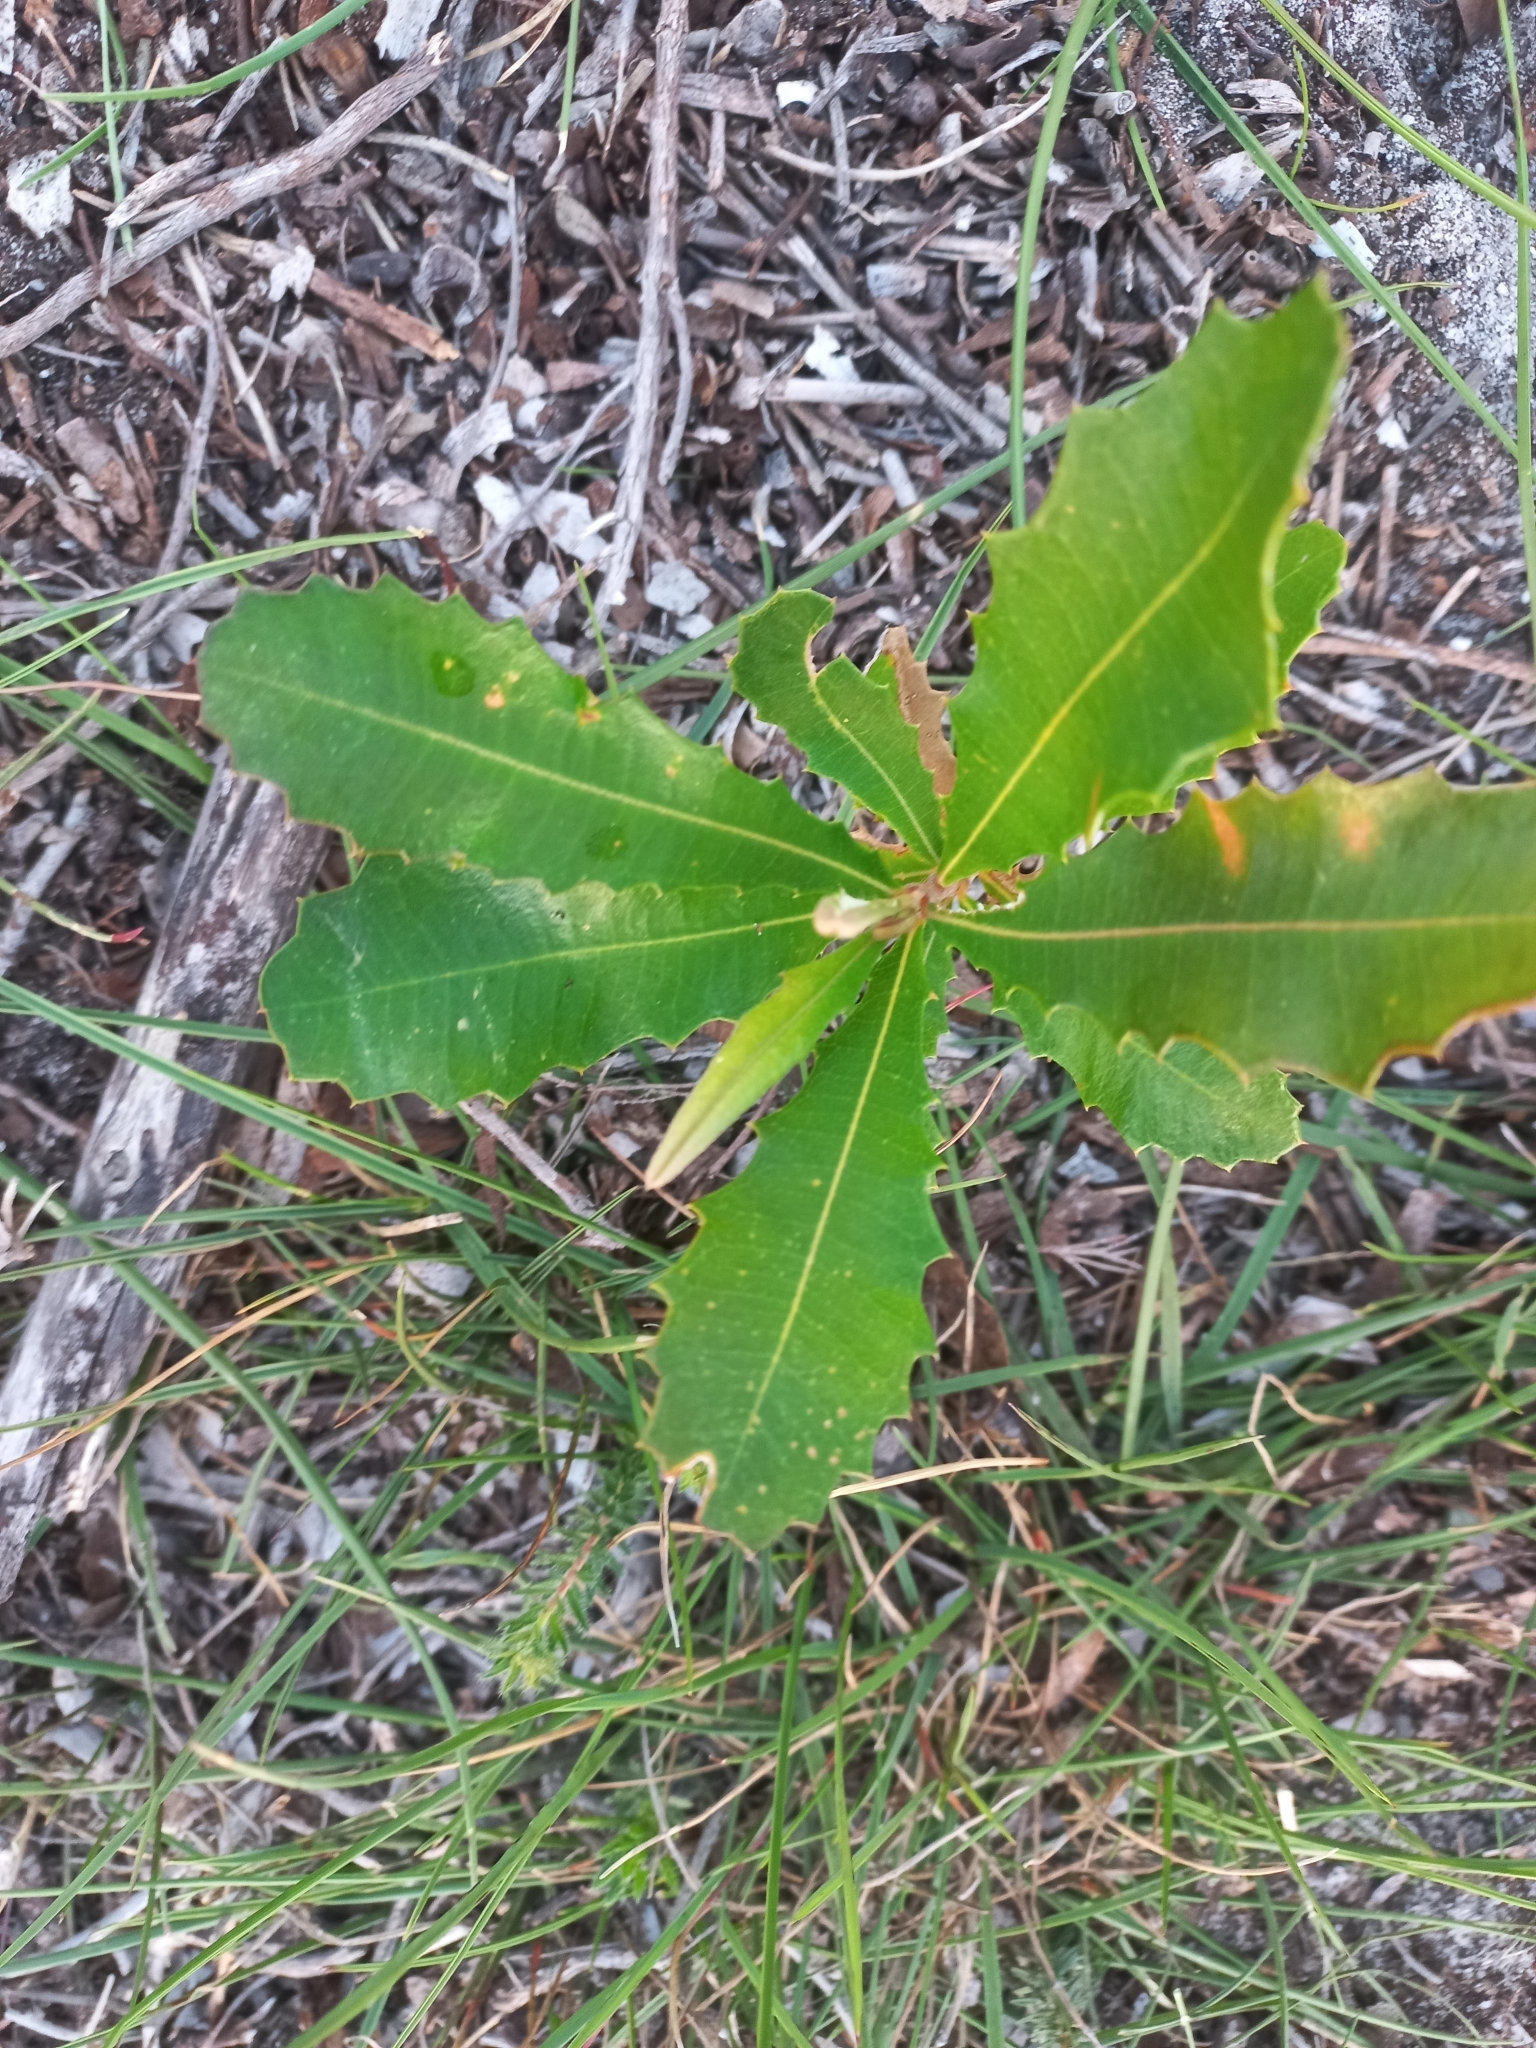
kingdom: Plantae
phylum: Tracheophyta
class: Magnoliopsida
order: Proteales
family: Proteaceae
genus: Banksia
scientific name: Banksia integrifolia
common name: White-honeysuckle
